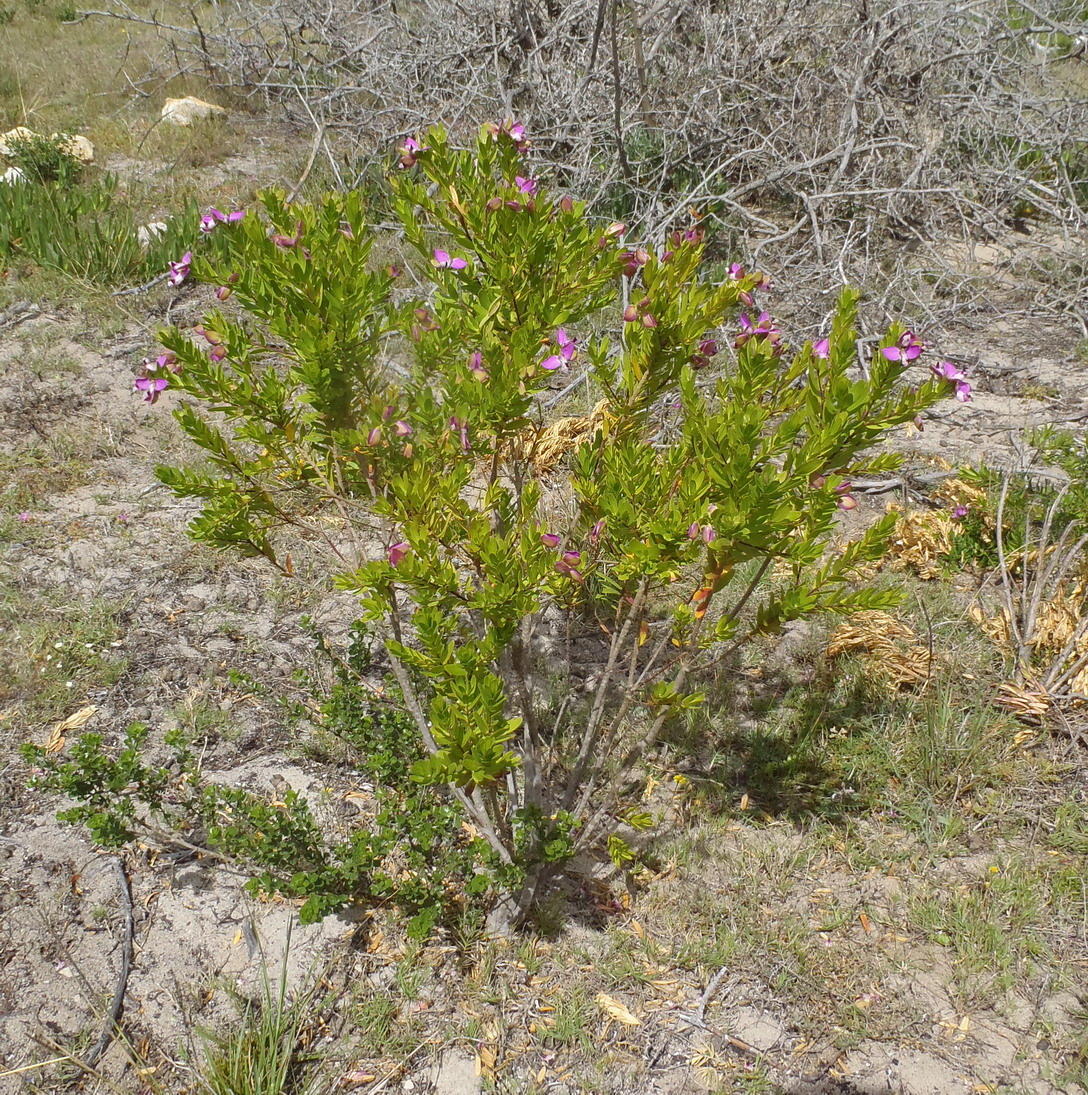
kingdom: Plantae
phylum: Tracheophyta
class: Magnoliopsida
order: Fabales
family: Polygalaceae
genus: Polygala
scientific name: Polygala myrtifolia
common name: Myrtle-leaf milkwort
